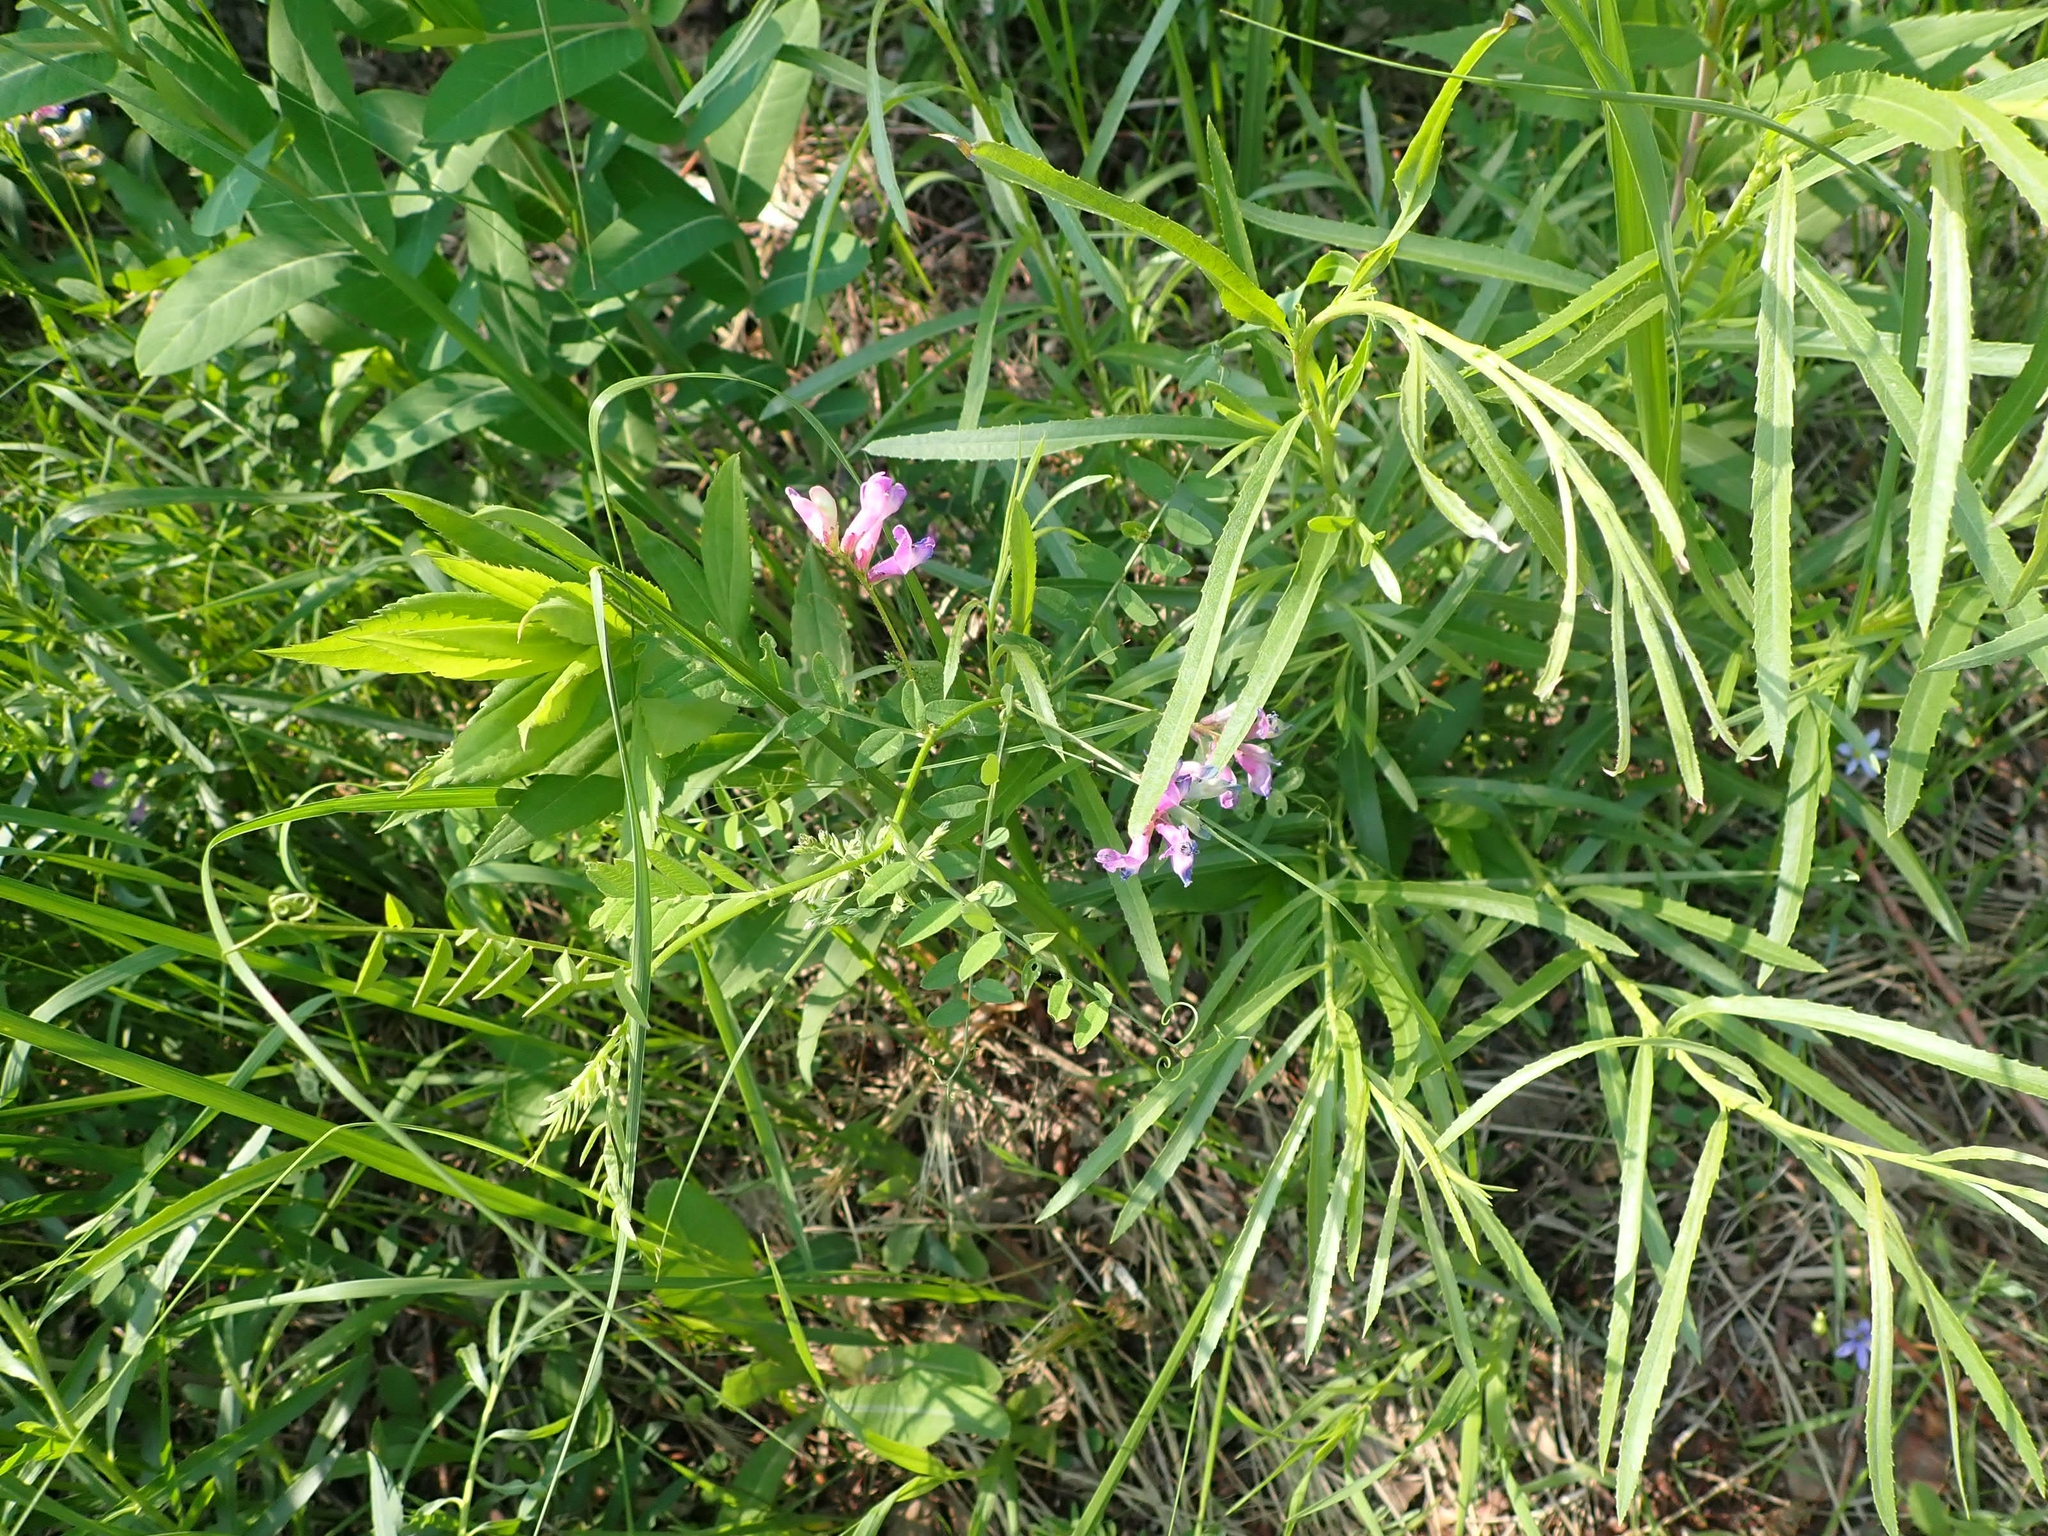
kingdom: Plantae
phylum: Tracheophyta
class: Magnoliopsida
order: Fabales
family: Fabaceae
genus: Vicia
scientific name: Vicia americana
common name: American vetch
